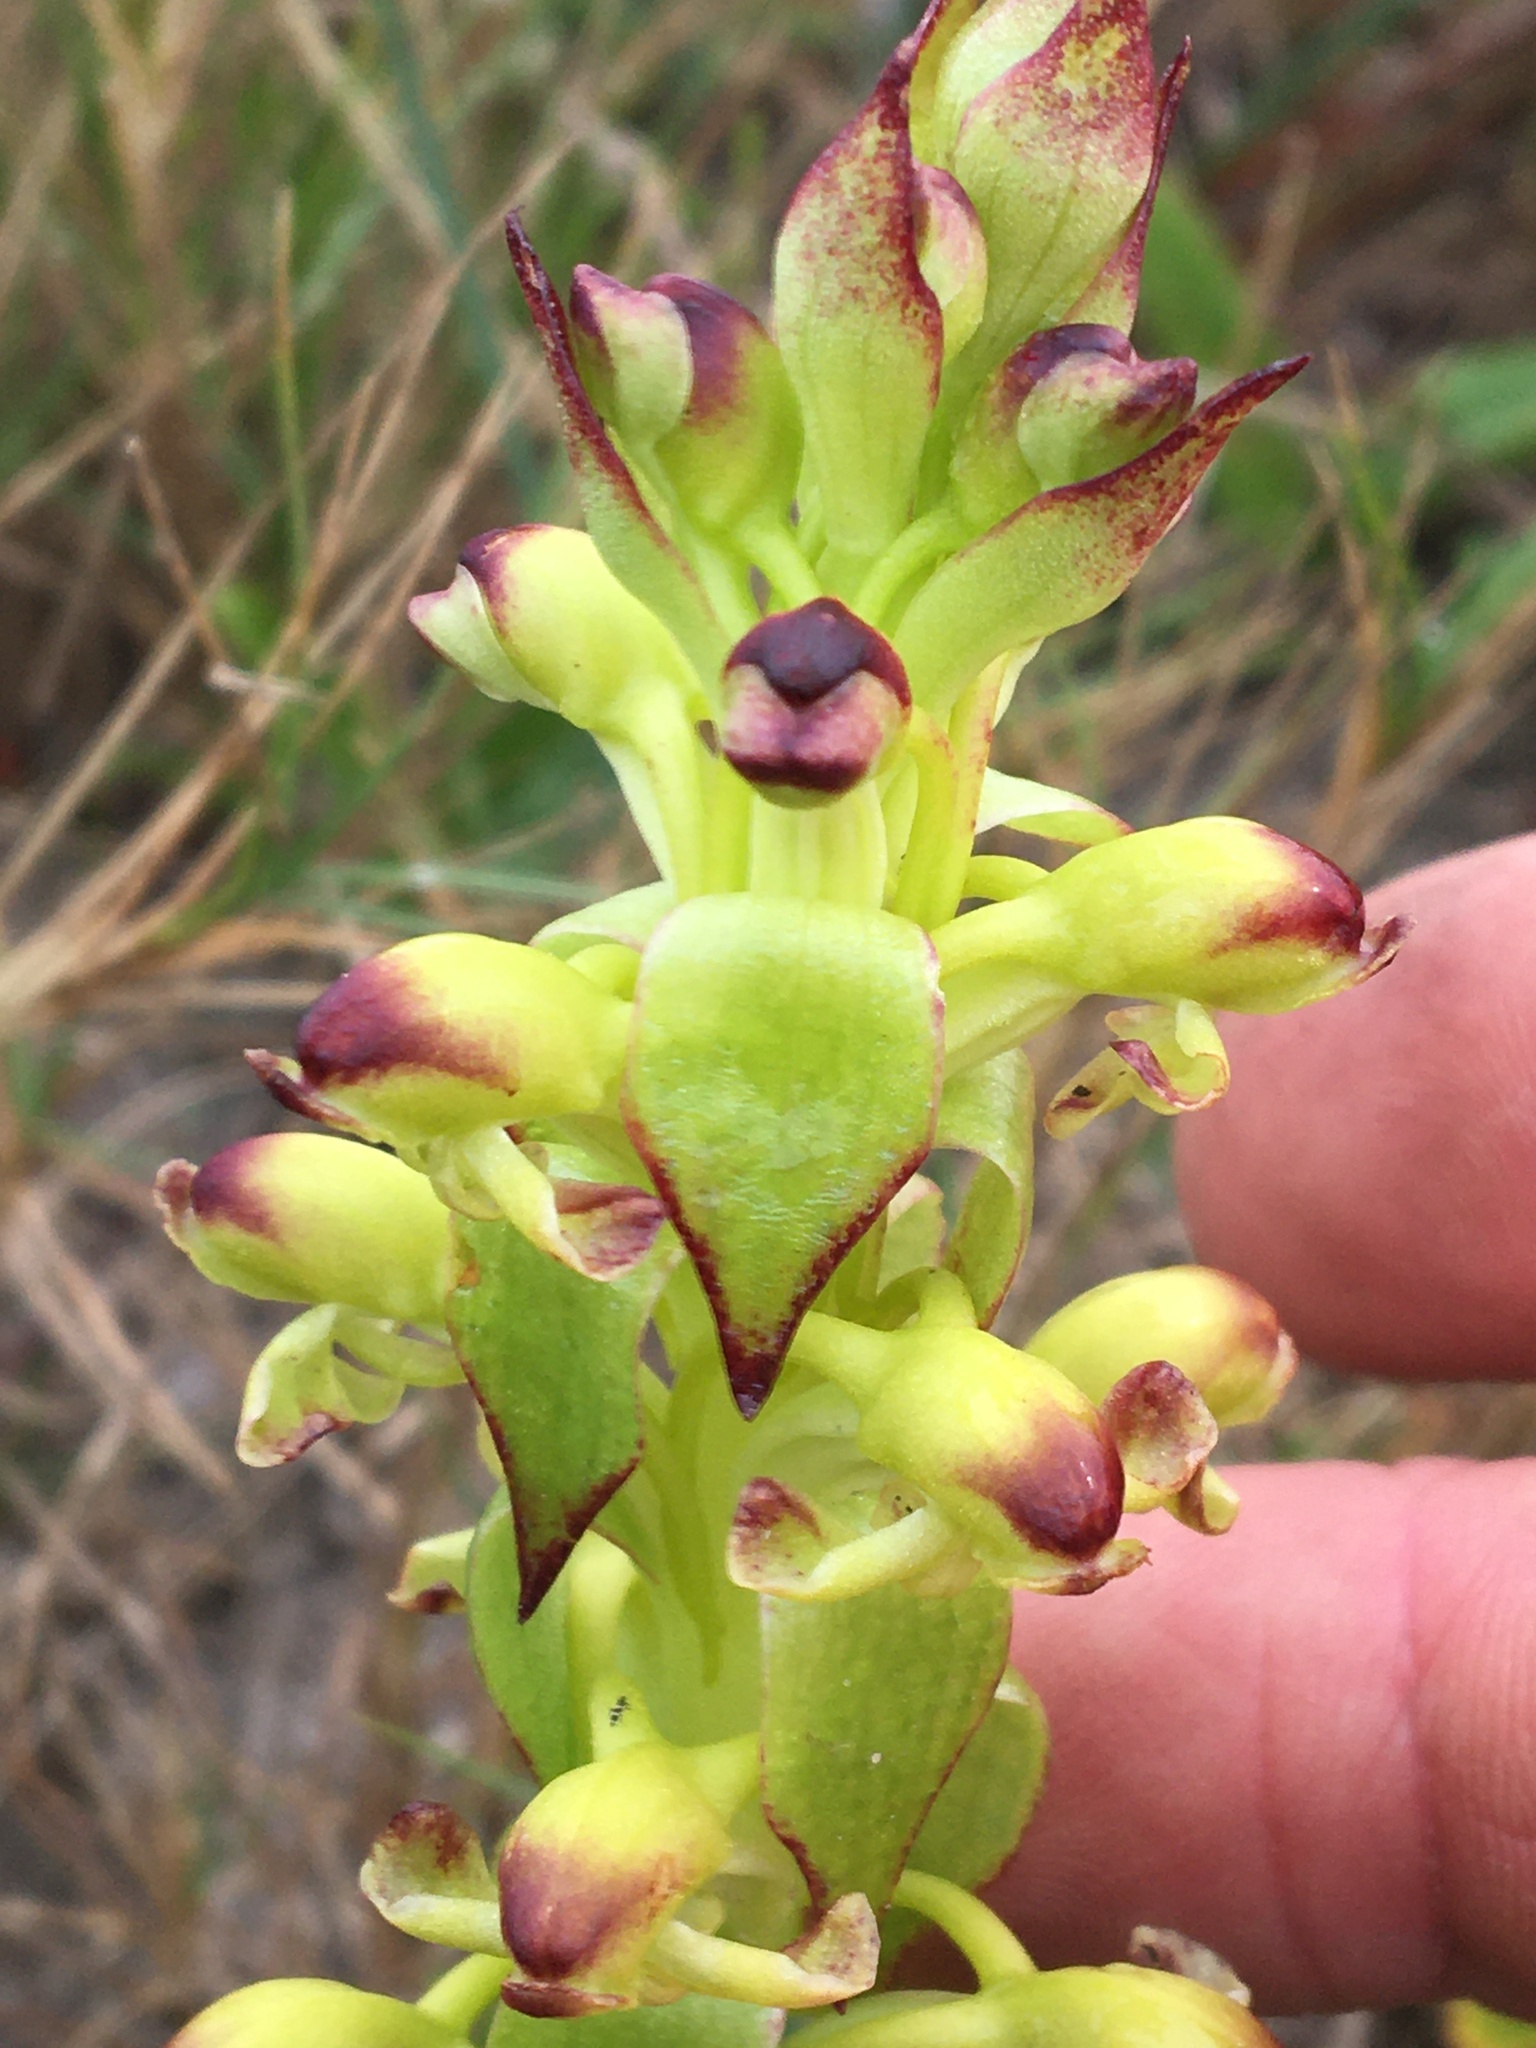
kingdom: Plantae
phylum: Tracheophyta
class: Liliopsida
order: Asparagales
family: Orchidaceae
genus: Satyrium
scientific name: Satyrium odorum
